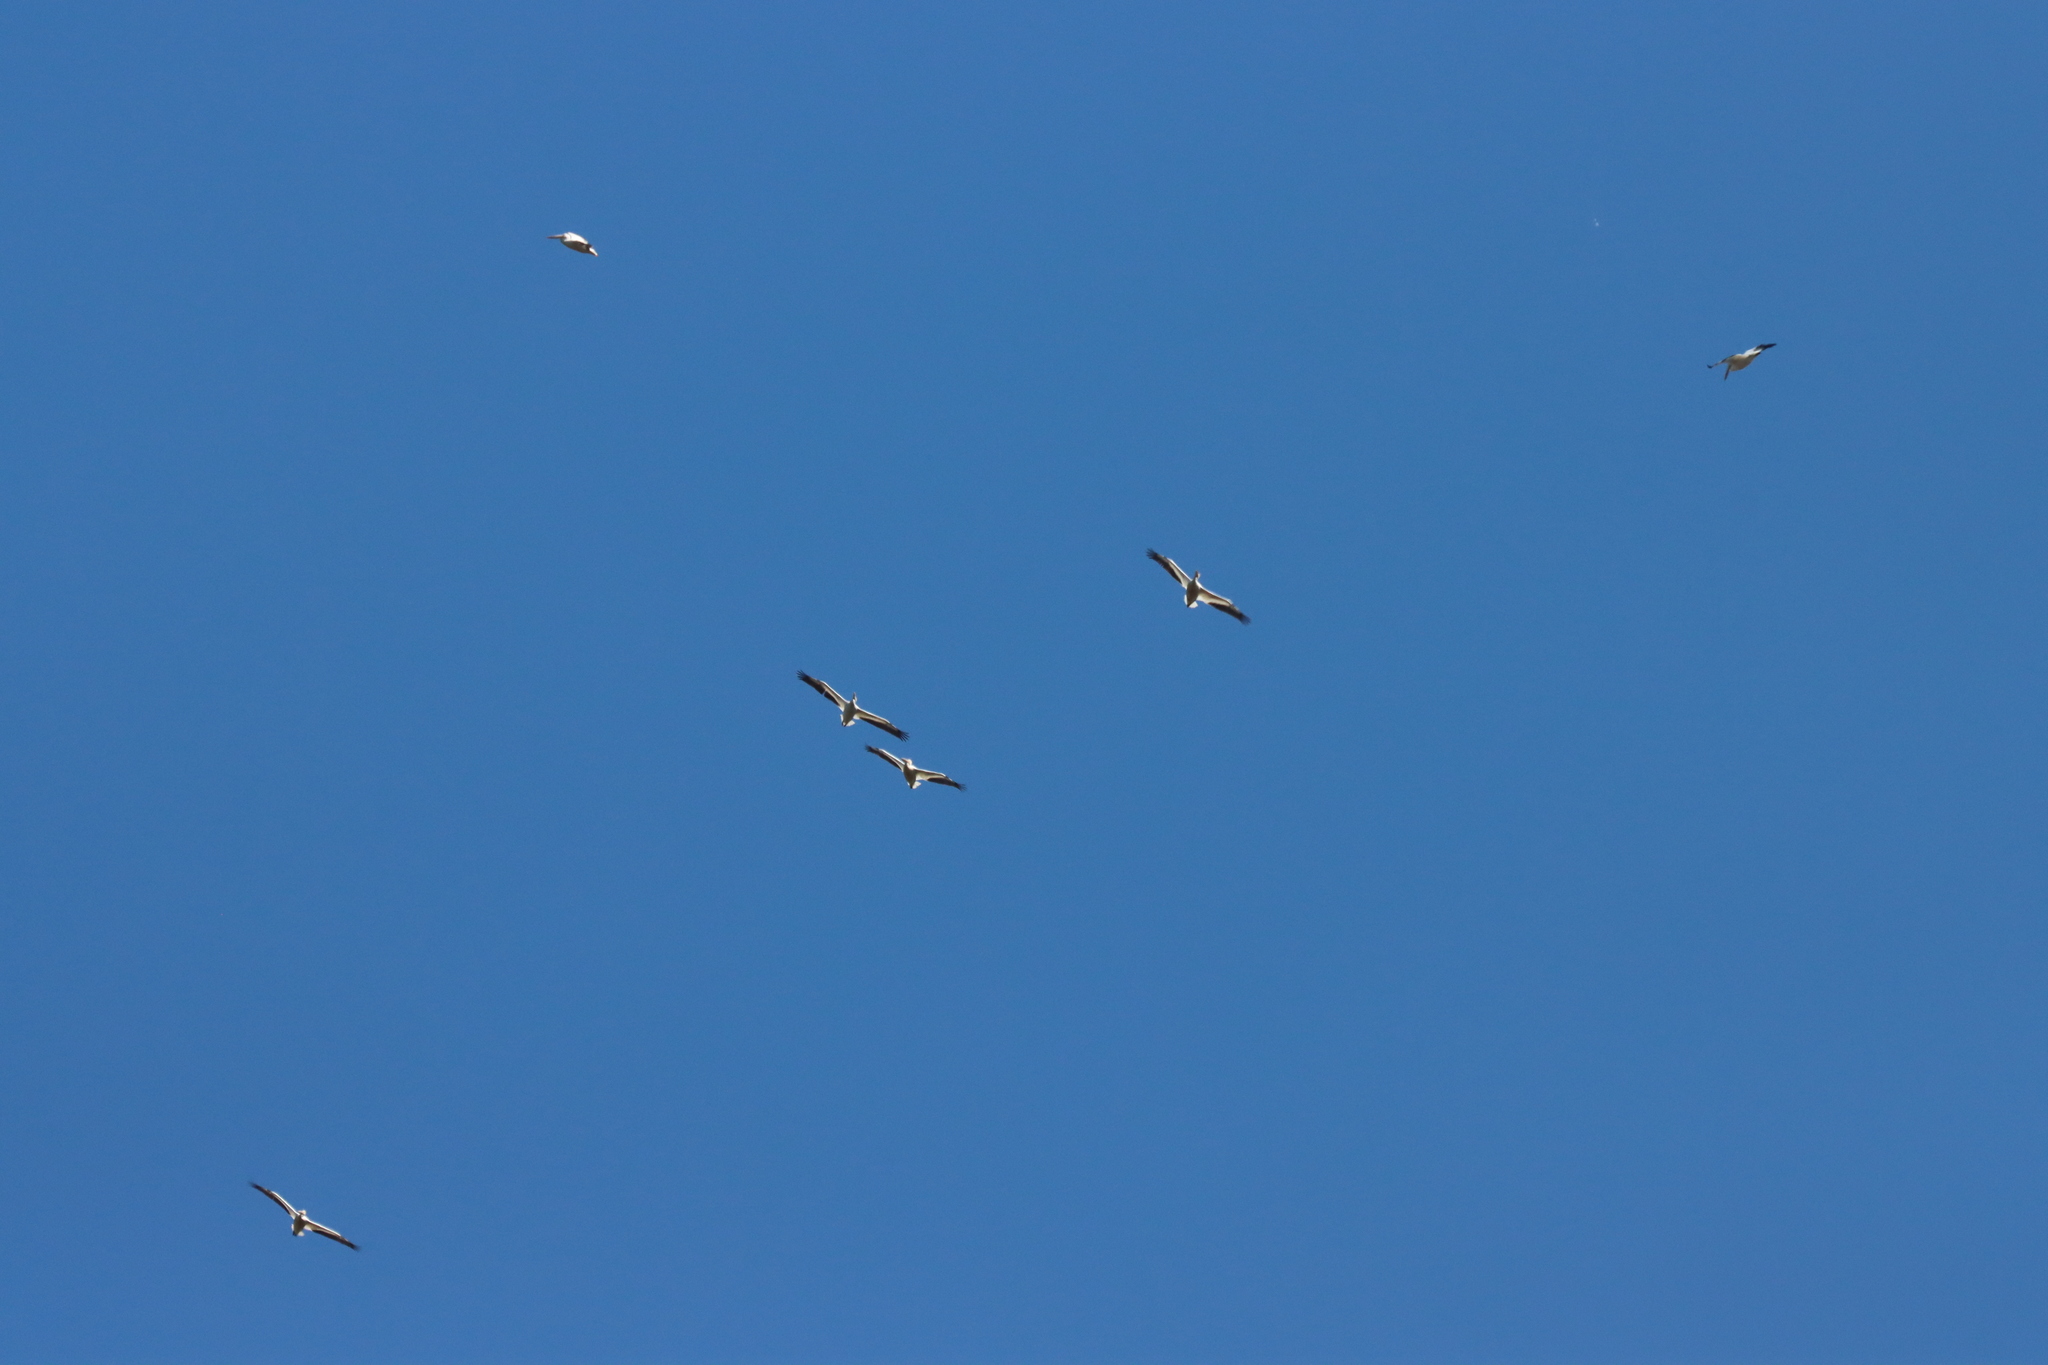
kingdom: Animalia
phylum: Chordata
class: Aves
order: Pelecaniformes
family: Pelecanidae
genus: Pelecanus
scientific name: Pelecanus erythrorhynchos
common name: American white pelican
